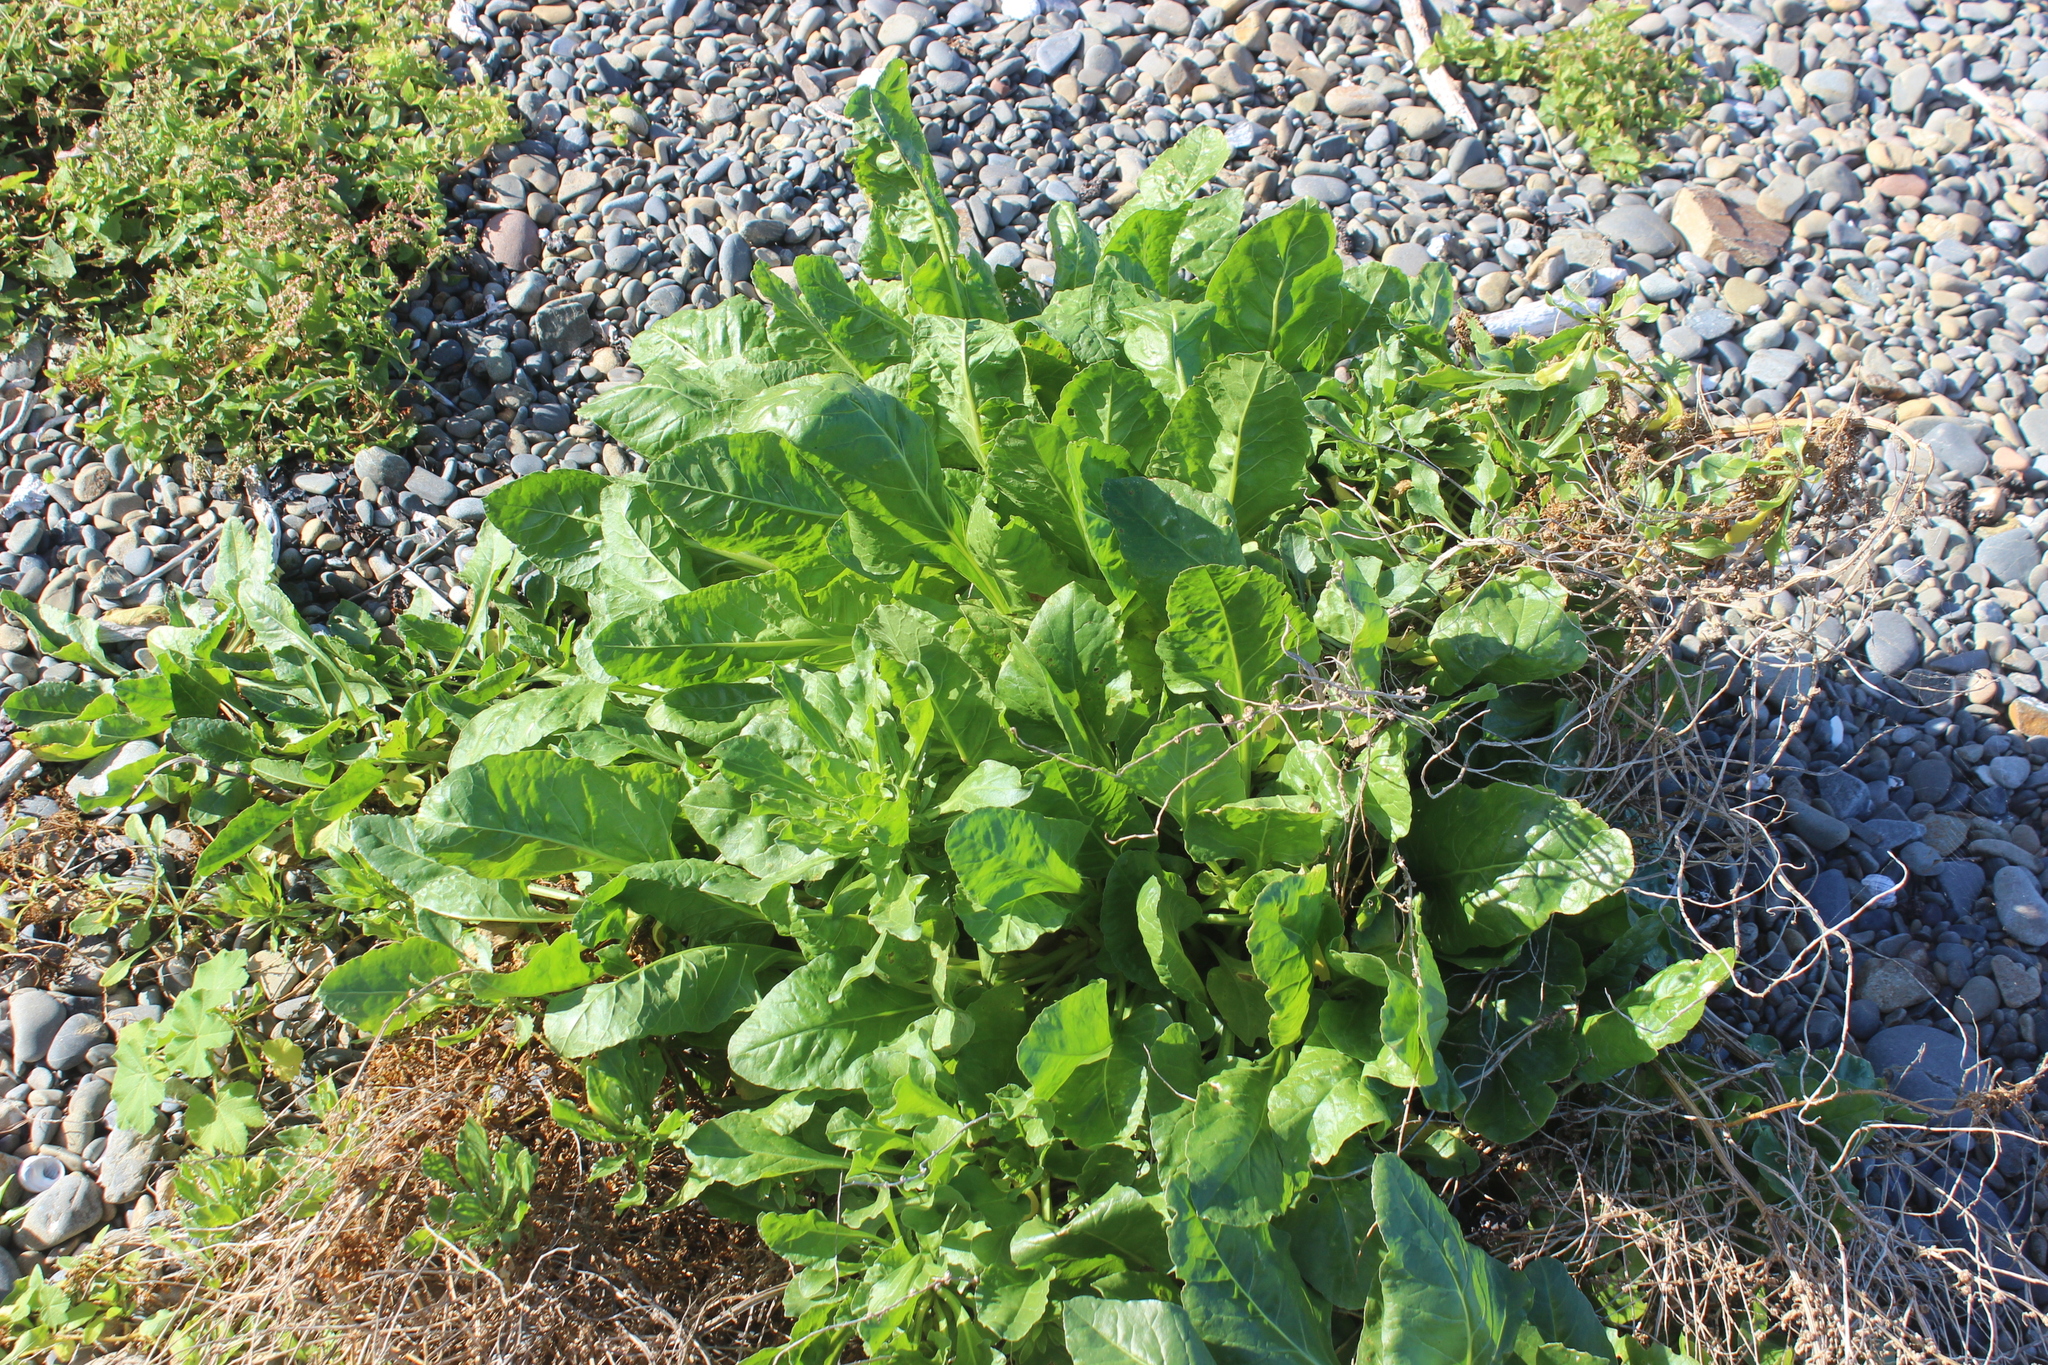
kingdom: Plantae
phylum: Tracheophyta
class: Magnoliopsida
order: Caryophyllales
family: Amaranthaceae
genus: Beta
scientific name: Beta vulgaris
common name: Beet
